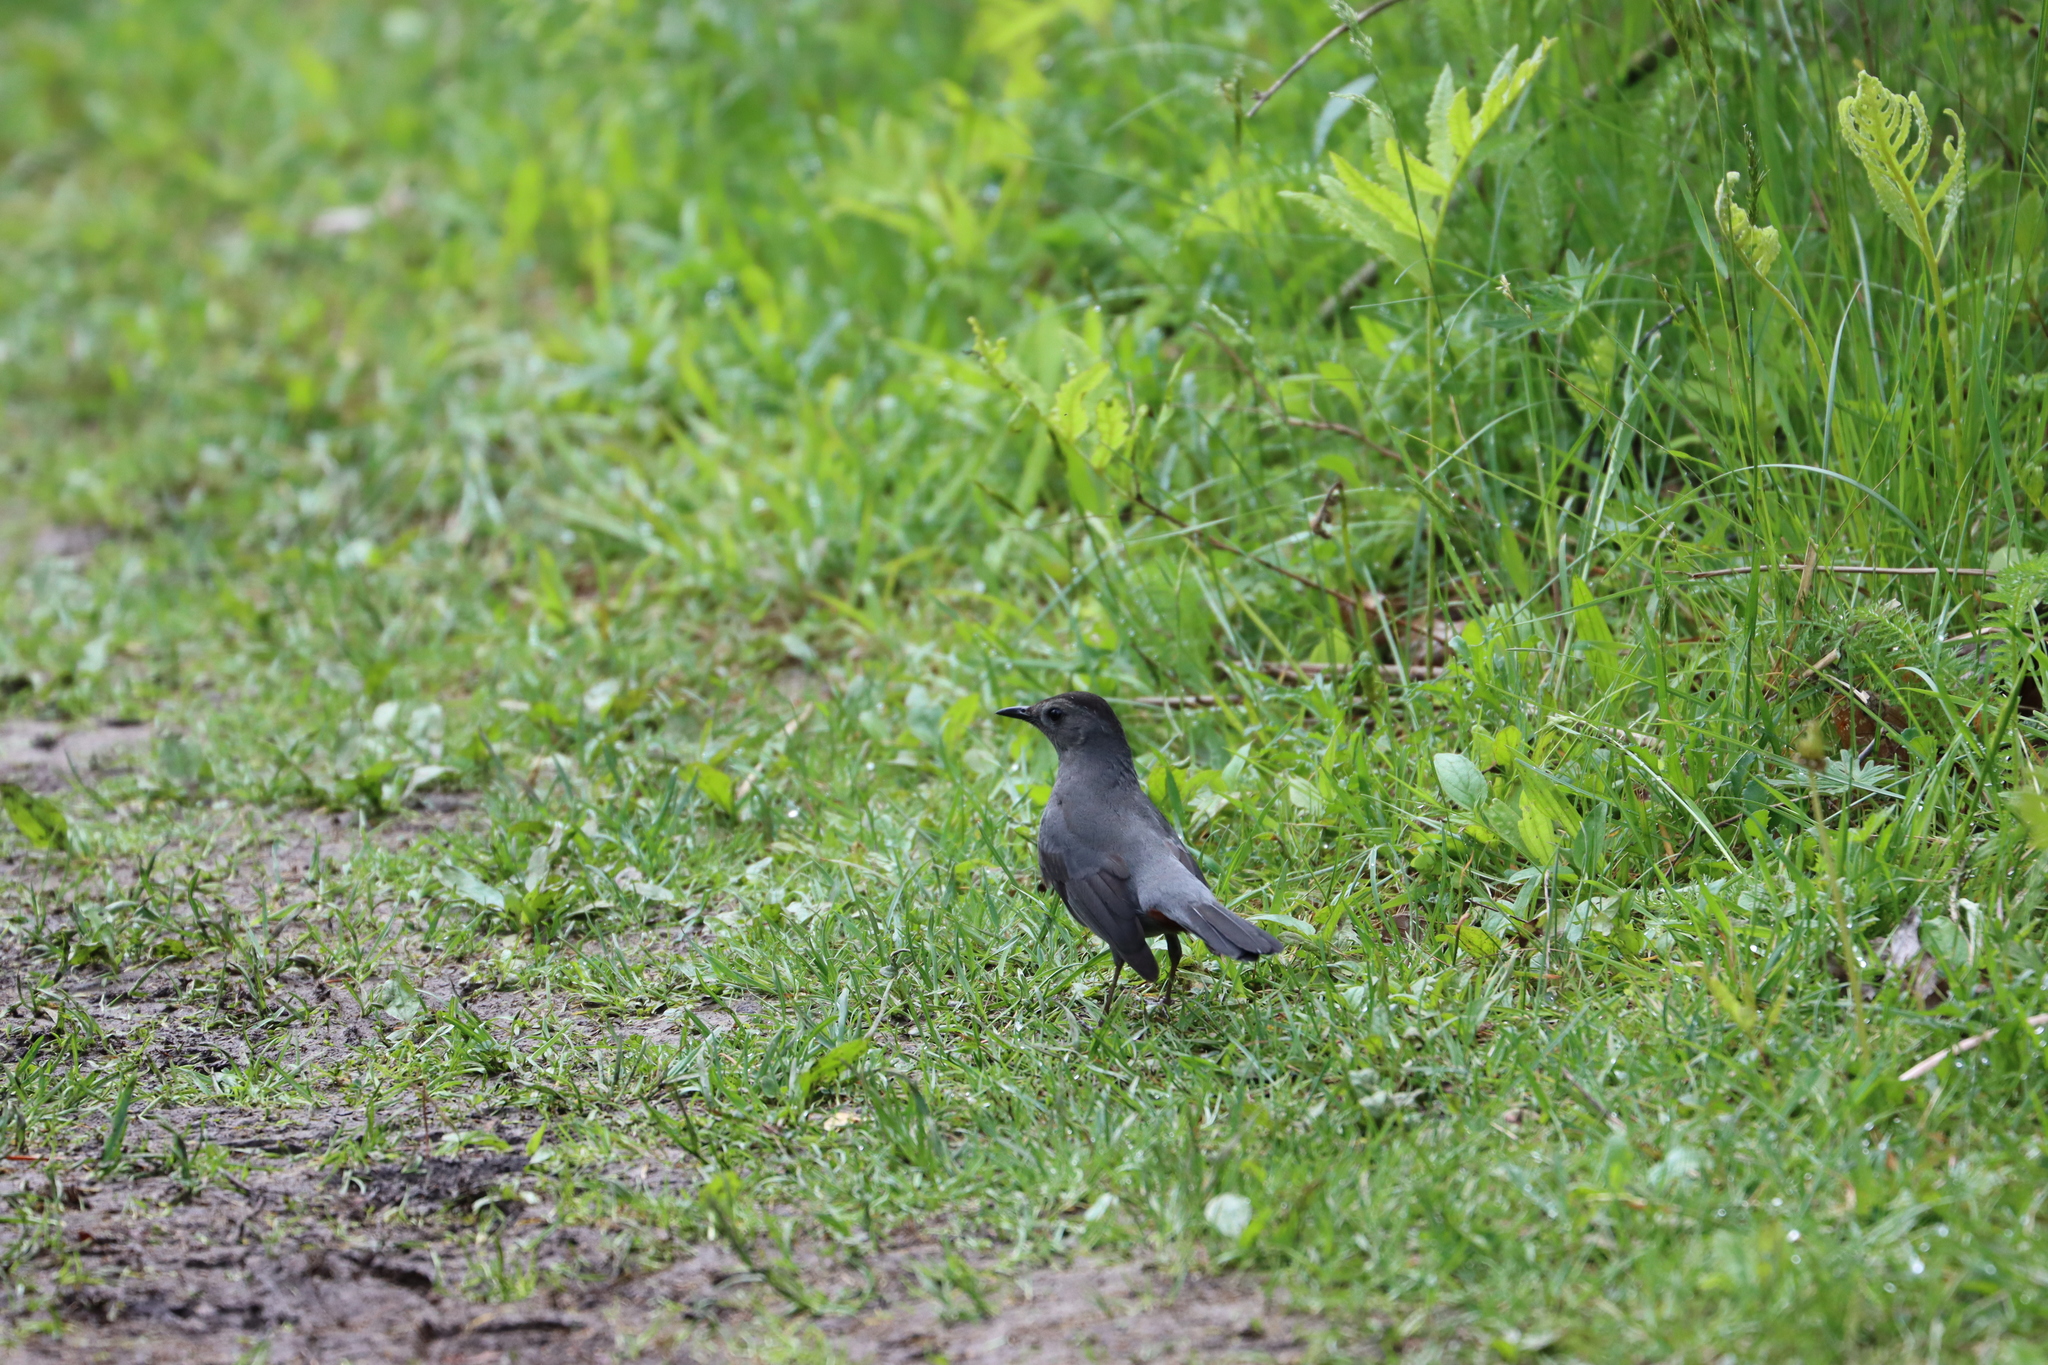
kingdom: Animalia
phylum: Chordata
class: Aves
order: Passeriformes
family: Mimidae
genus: Dumetella
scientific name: Dumetella carolinensis
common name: Gray catbird
